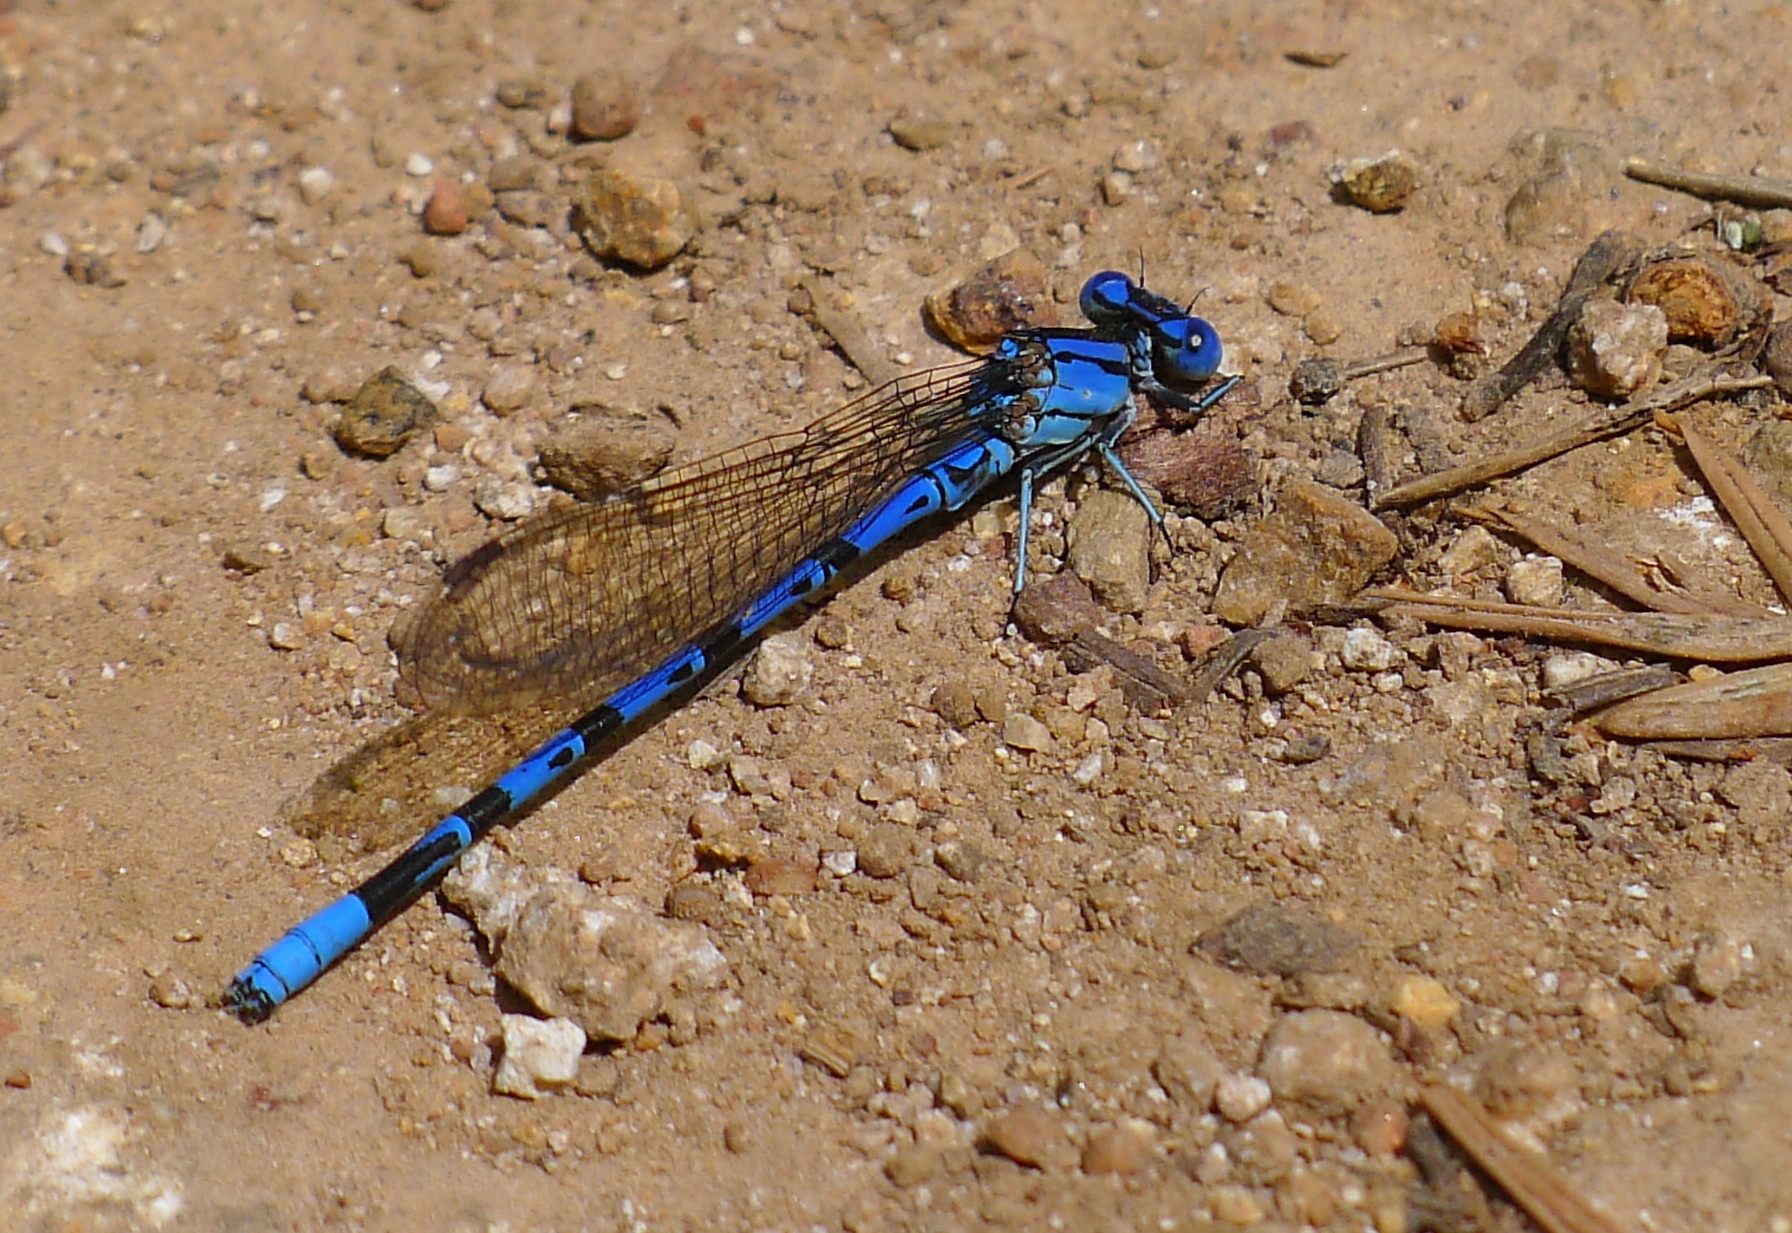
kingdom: Animalia
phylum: Arthropoda
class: Insecta
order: Odonata
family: Coenagrionidae
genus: Argia
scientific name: Argia vivida
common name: Vivid dancer
